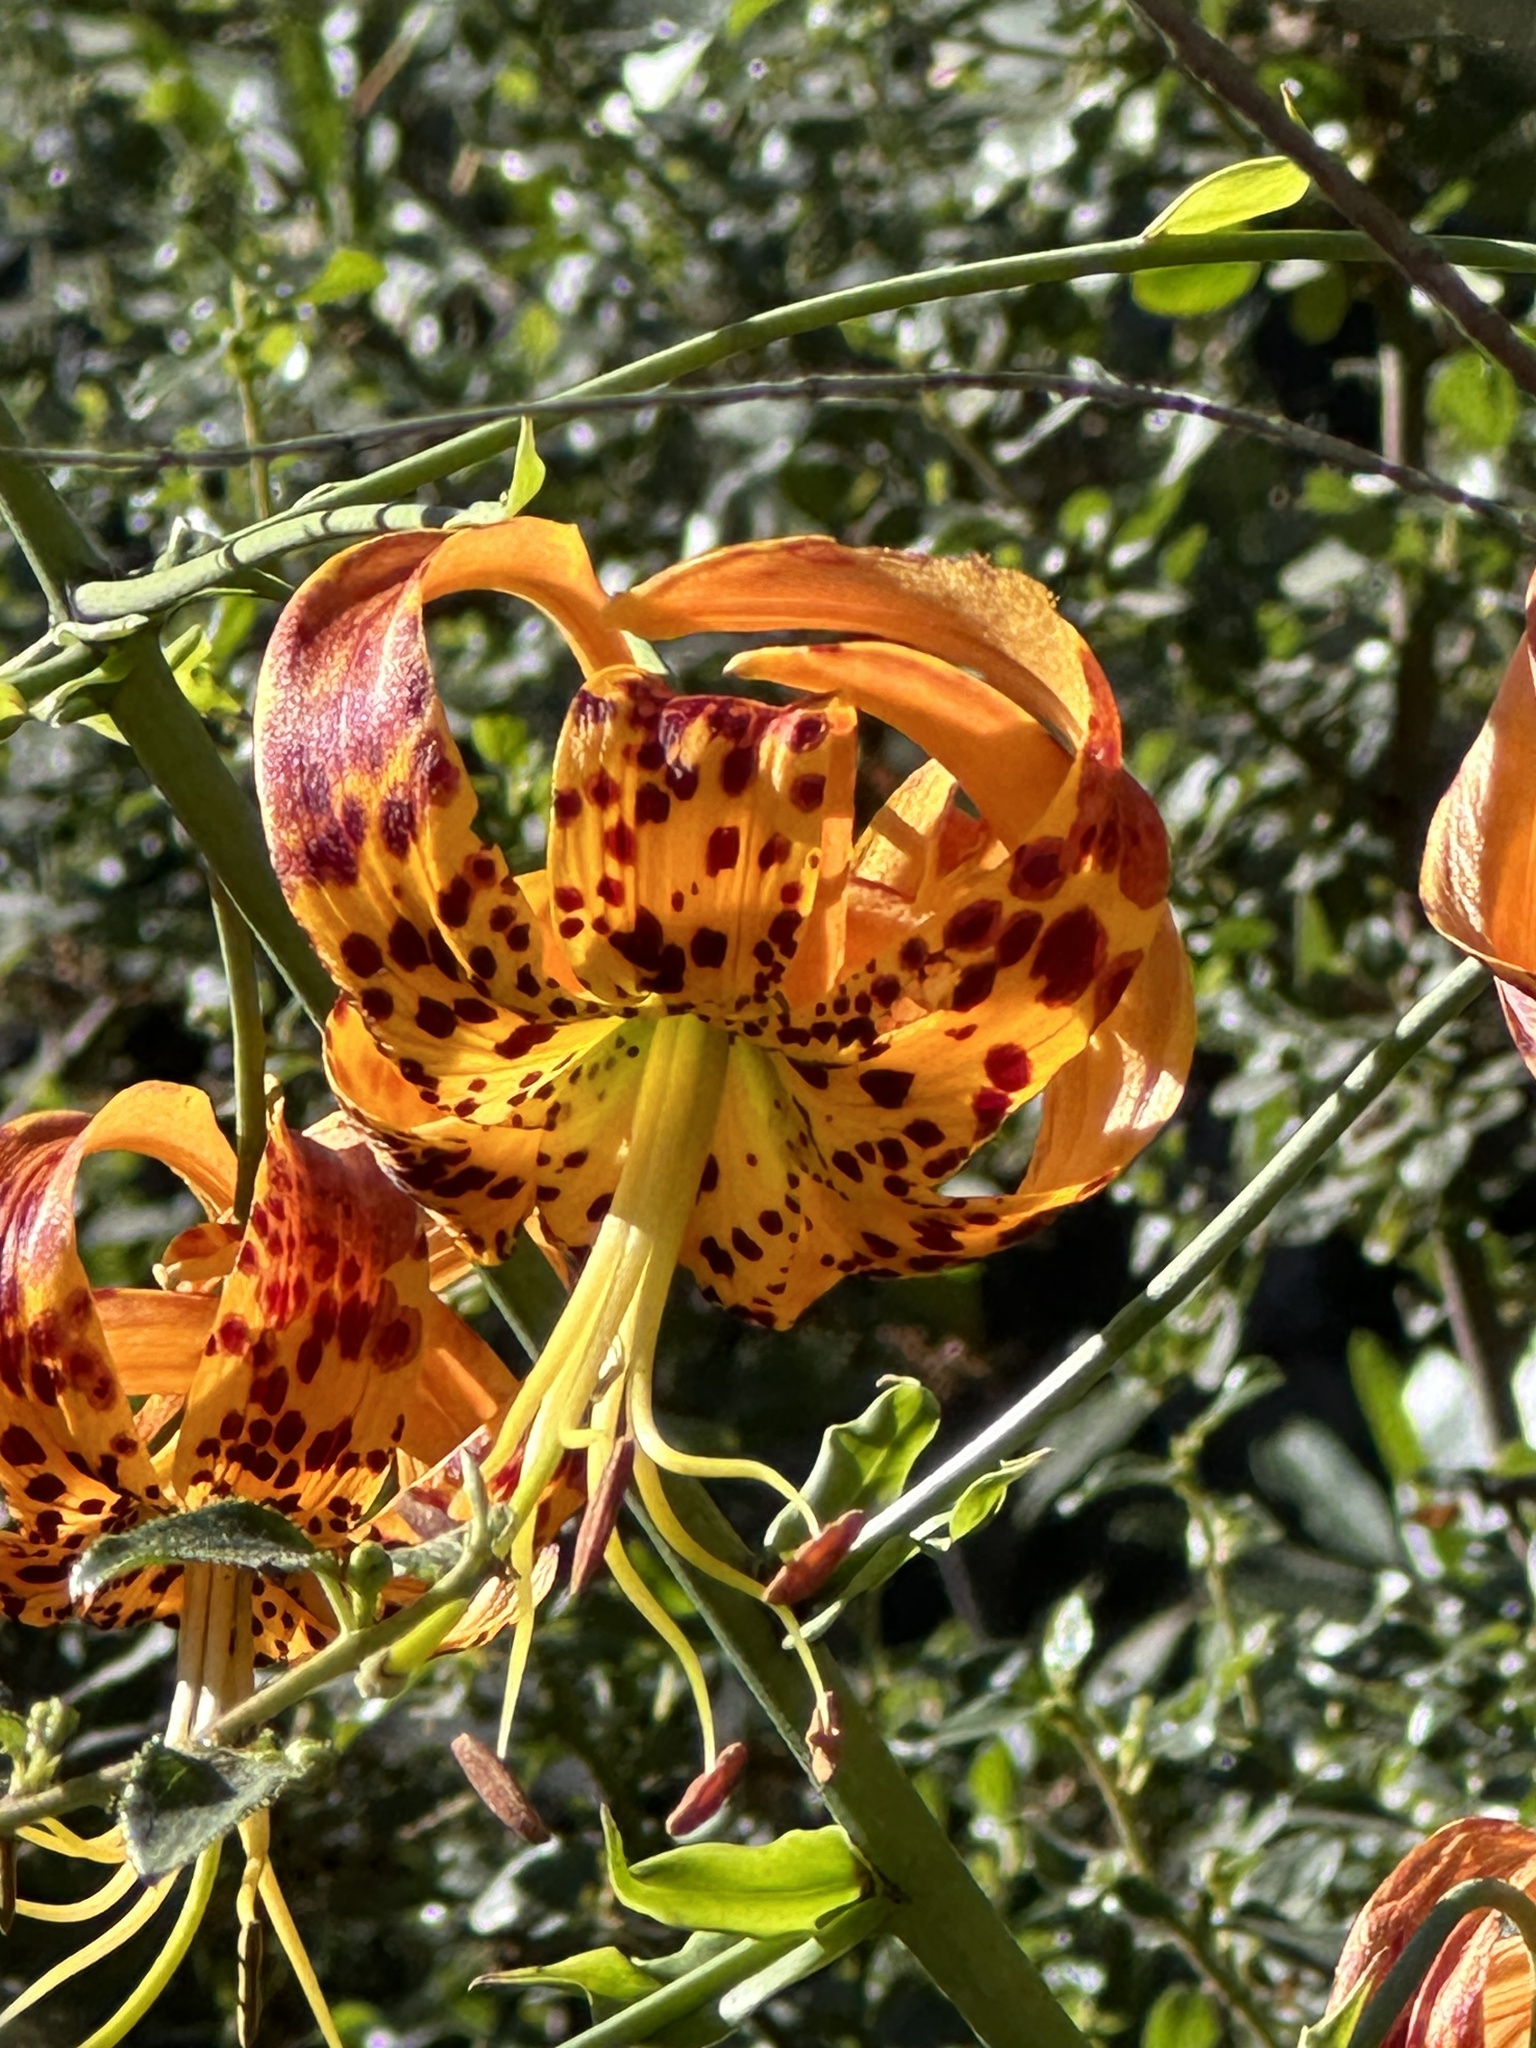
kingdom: Plantae
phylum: Tracheophyta
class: Liliopsida
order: Liliales
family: Liliaceae
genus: Lilium
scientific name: Lilium humboldtii
